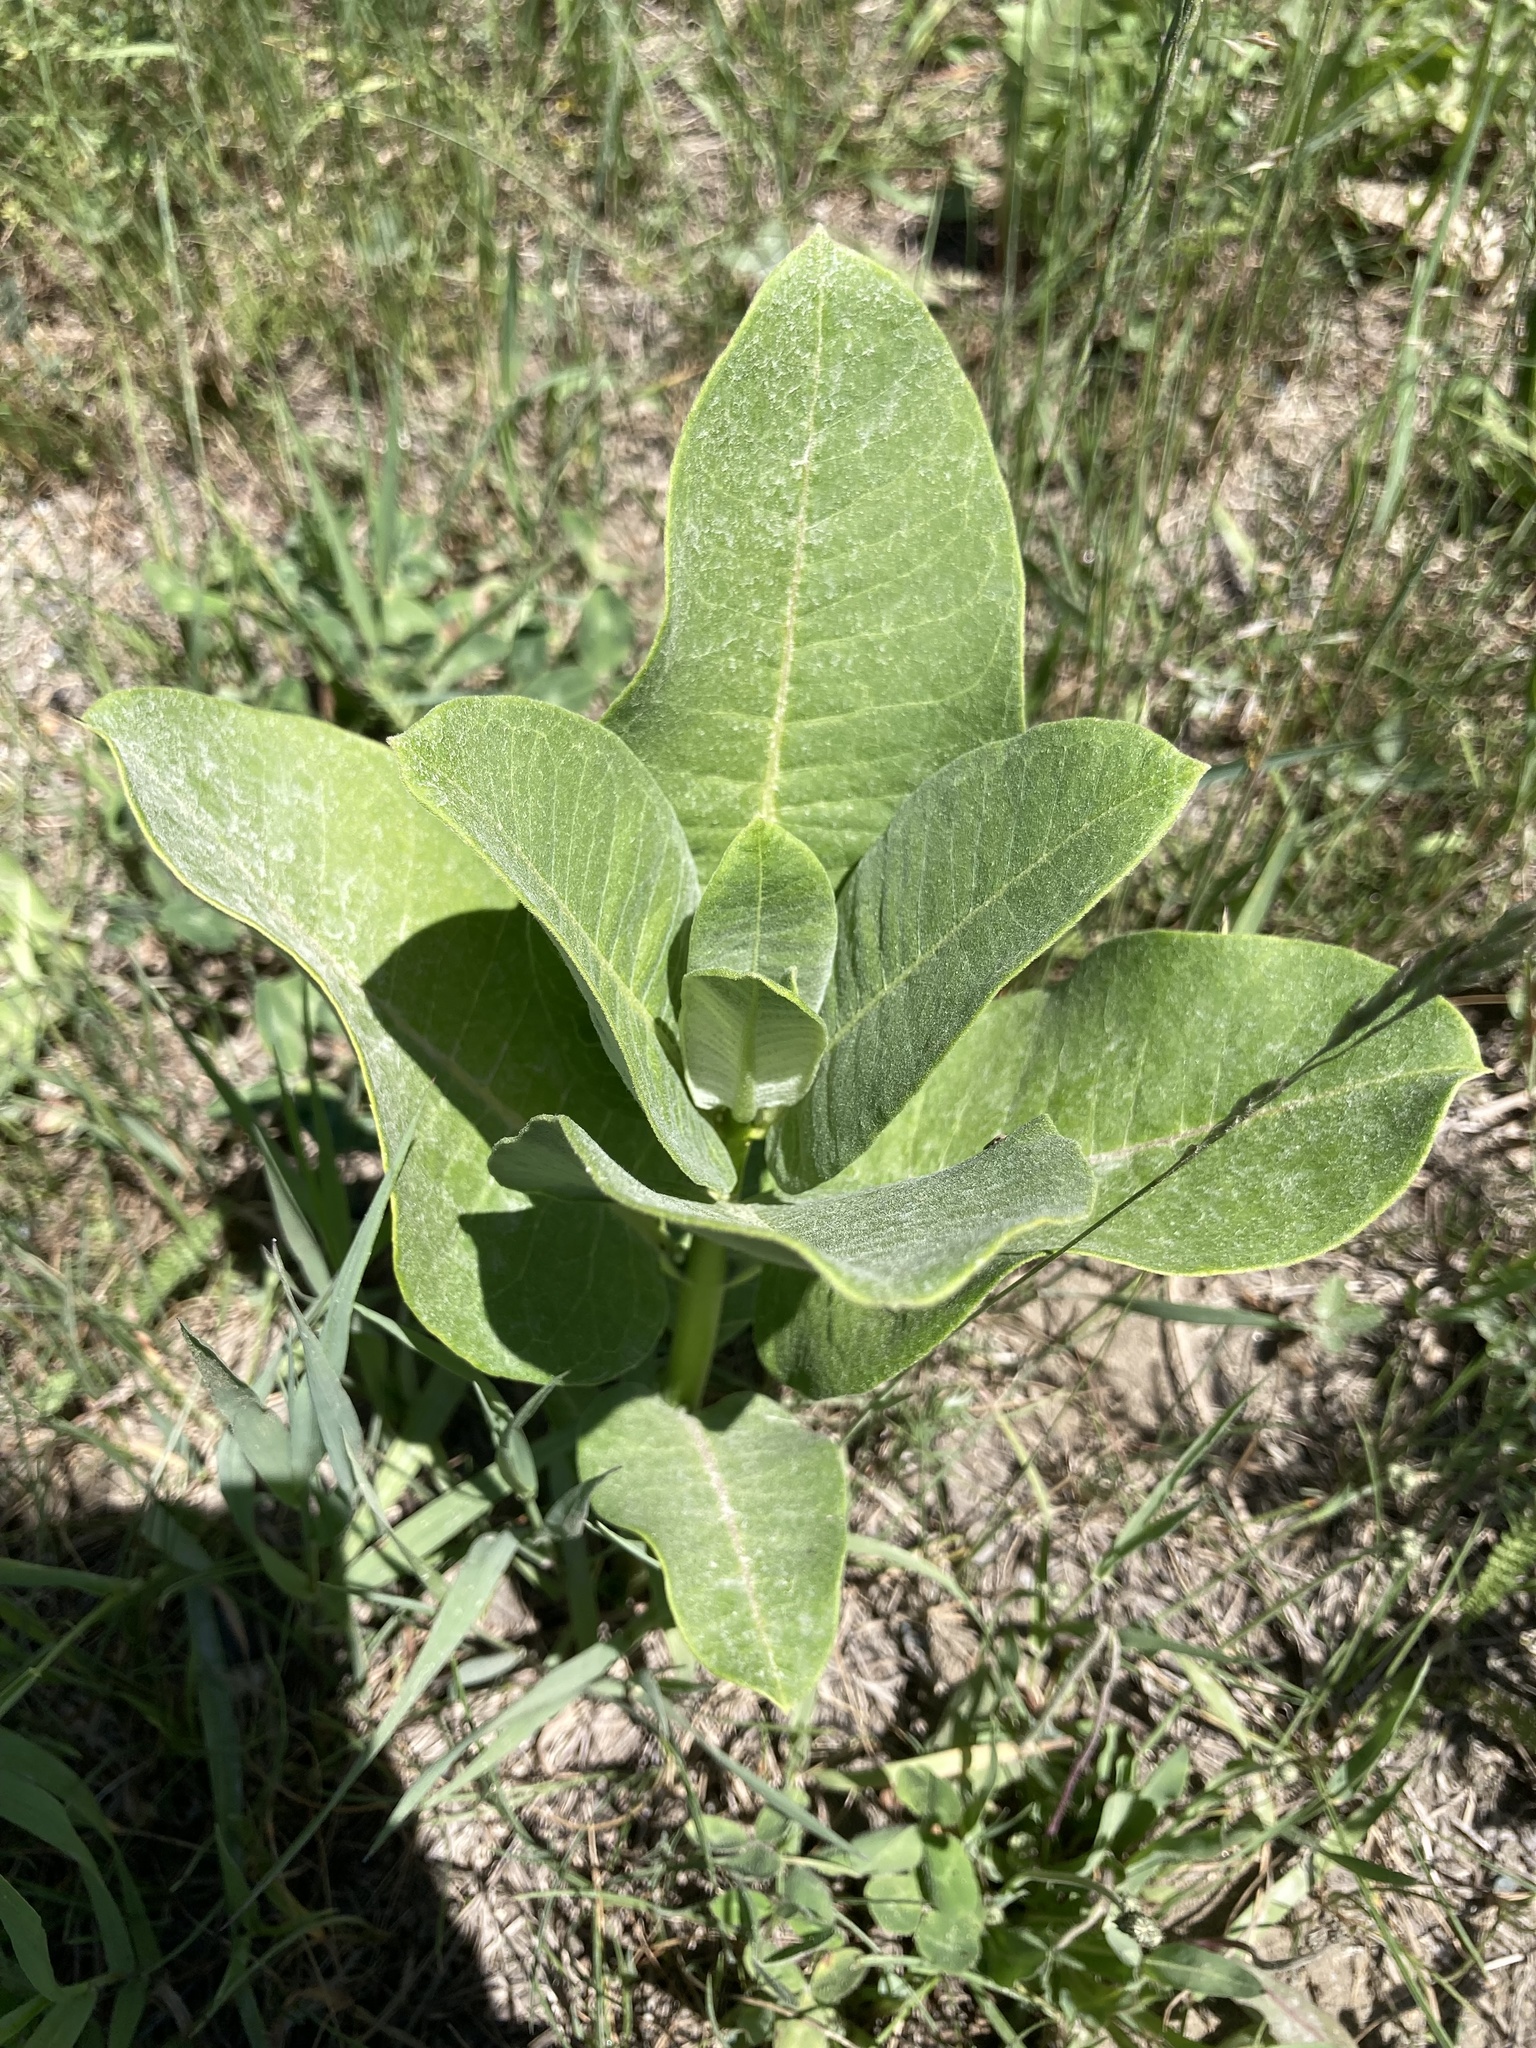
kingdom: Plantae
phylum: Tracheophyta
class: Magnoliopsida
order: Gentianales
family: Apocynaceae
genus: Asclepias
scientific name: Asclepias syriaca
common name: Common milkweed
